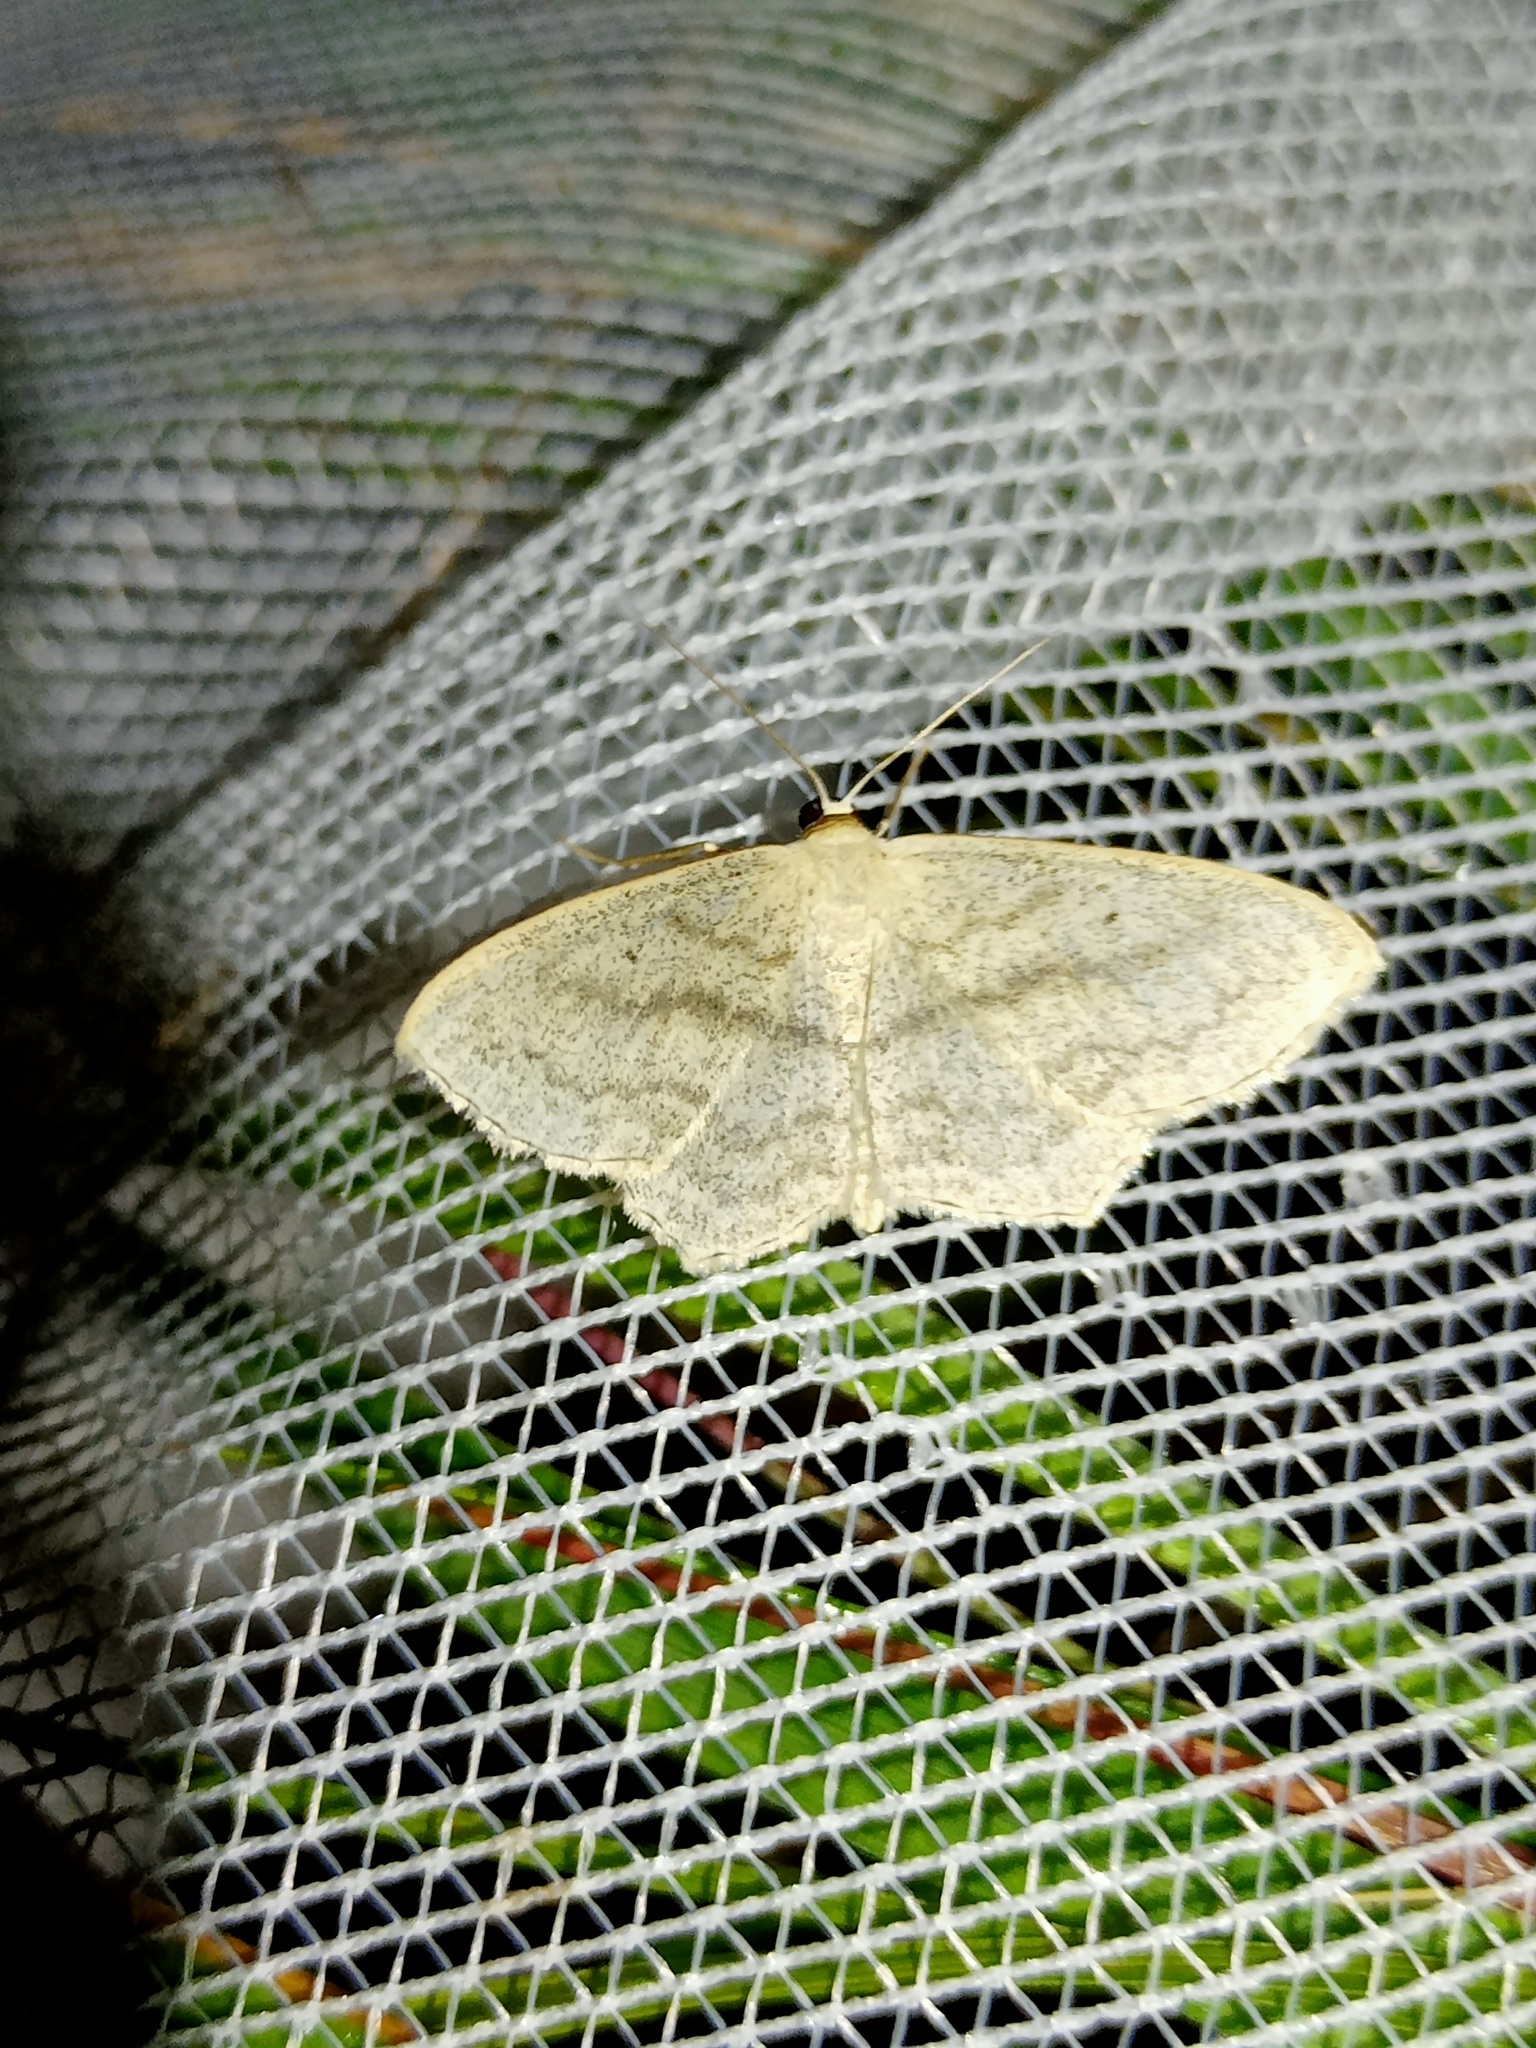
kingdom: Animalia
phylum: Arthropoda
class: Insecta
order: Lepidoptera
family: Geometridae
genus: Scopula
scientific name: Scopula nigropunctata
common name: Sub-angled wave
